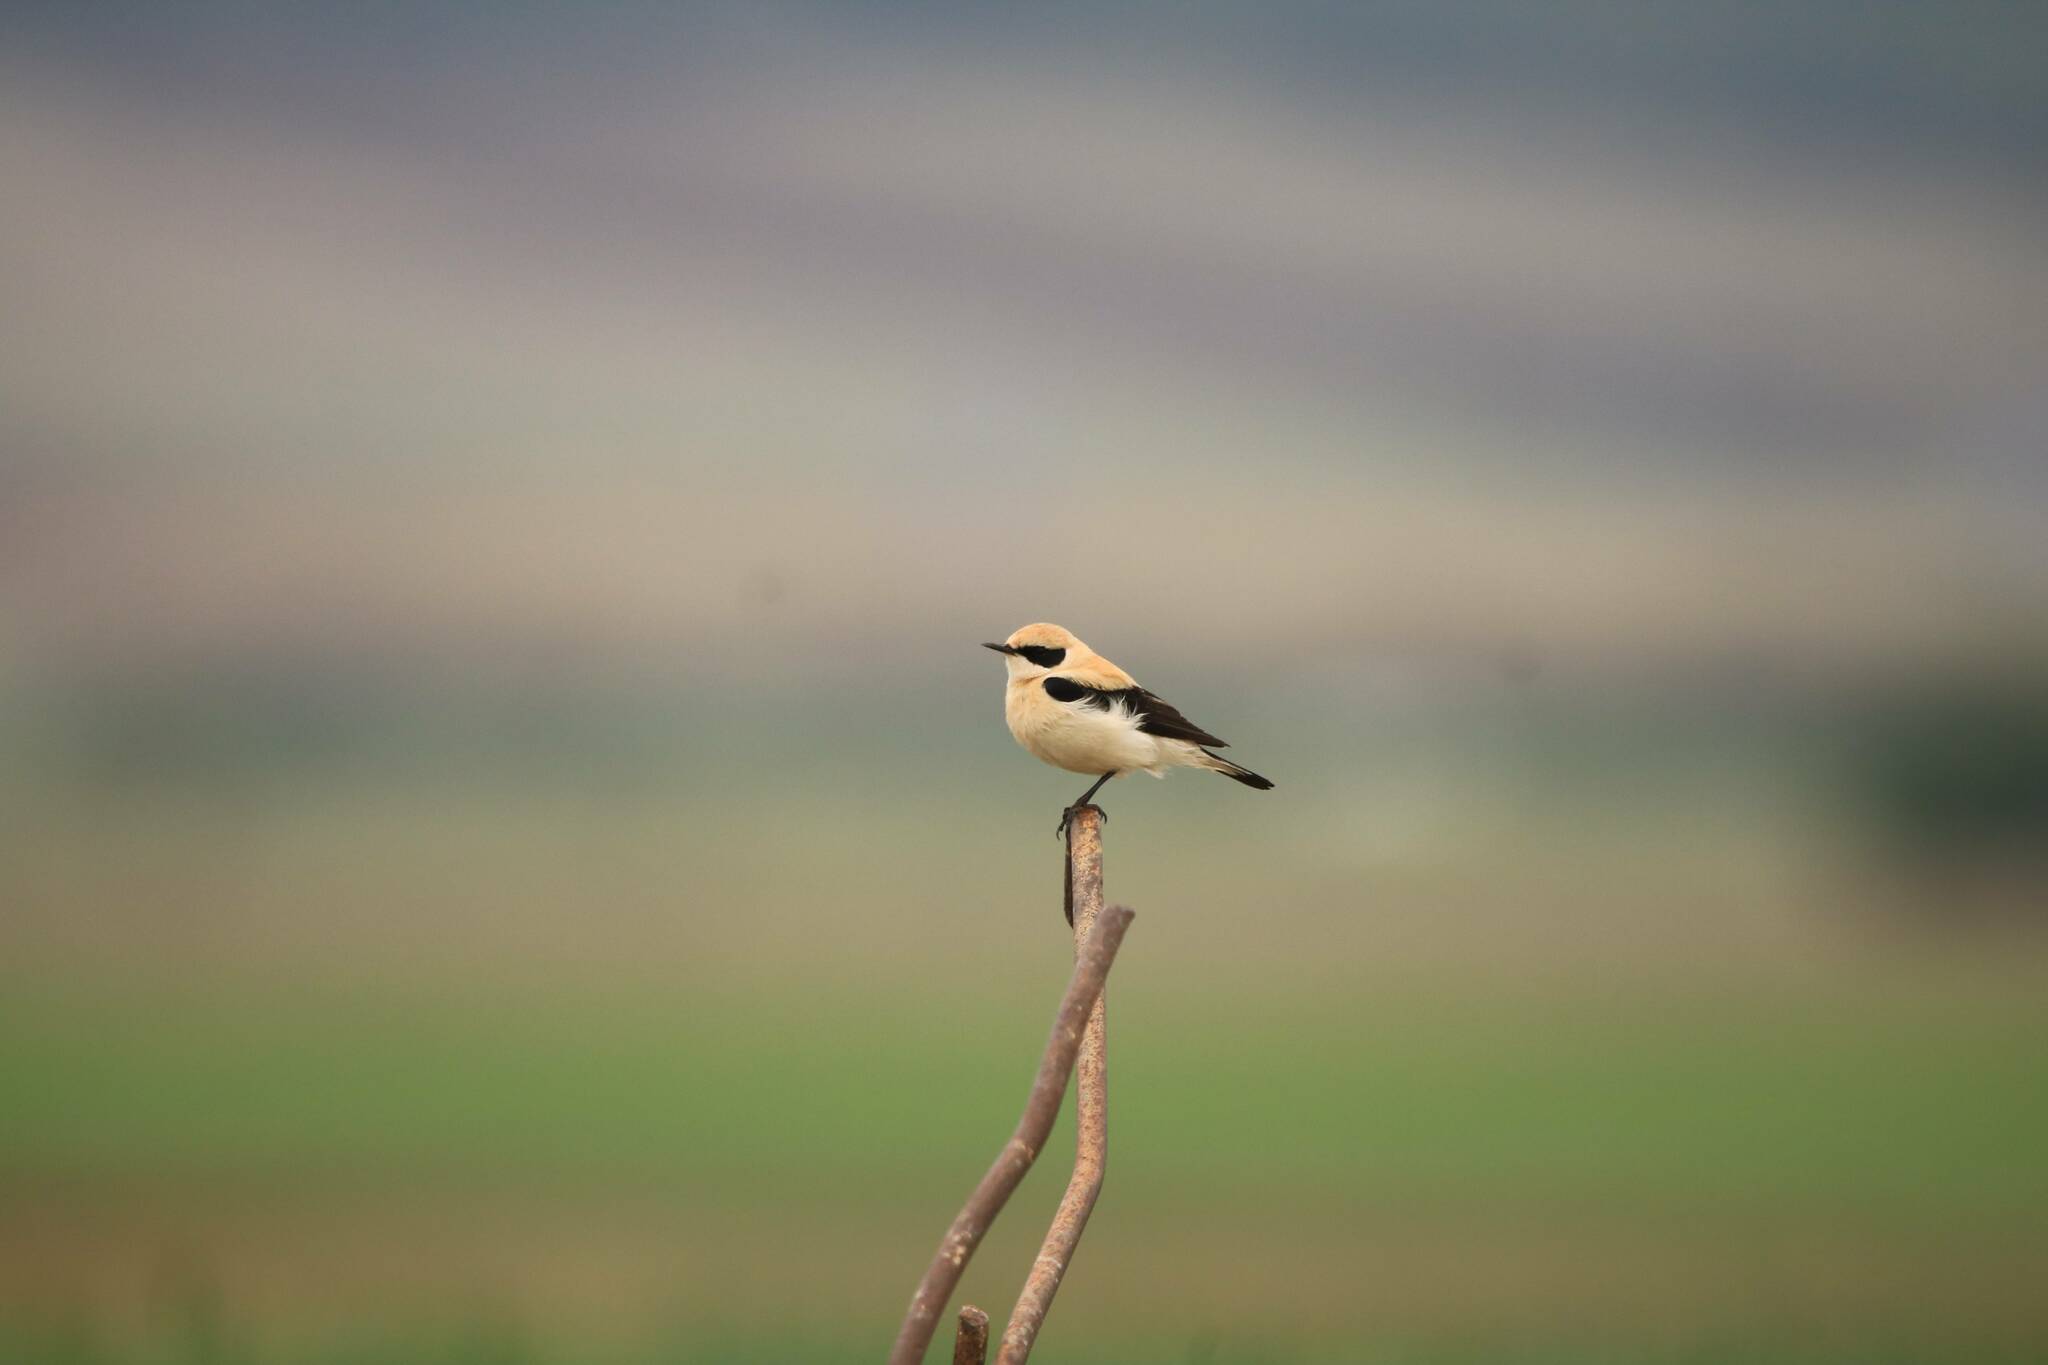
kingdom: Animalia
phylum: Chordata
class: Aves
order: Passeriformes
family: Muscicapidae
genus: Oenanthe
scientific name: Oenanthe hispanica
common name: Black-eared wheatear
